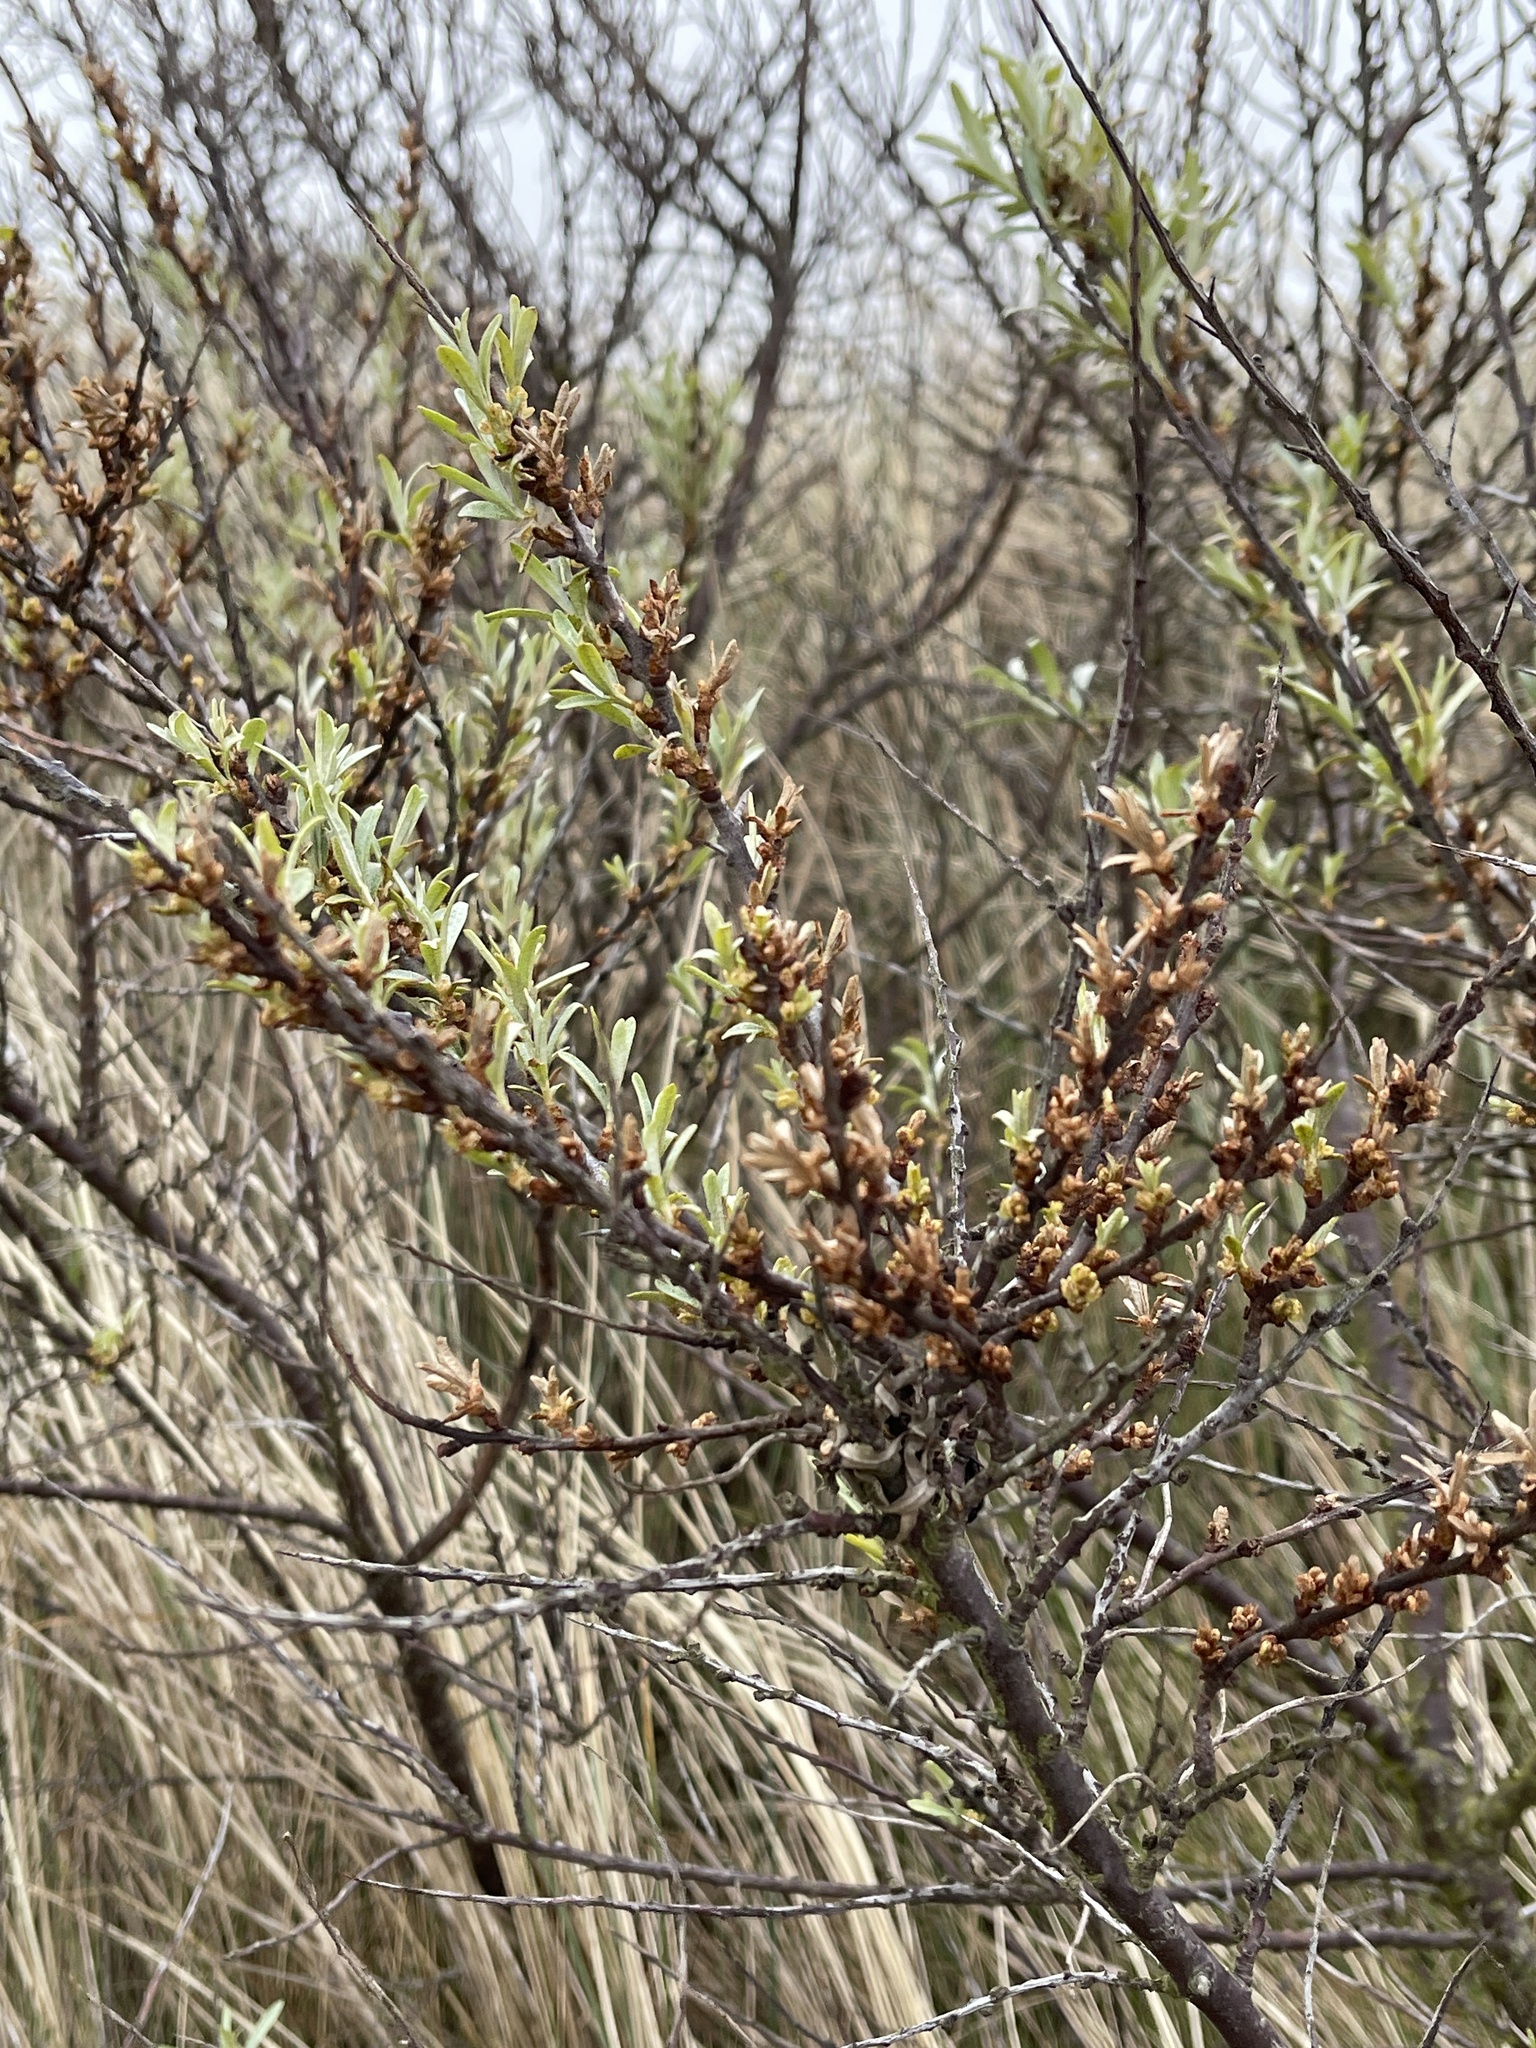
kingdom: Plantae
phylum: Tracheophyta
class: Magnoliopsida
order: Rosales
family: Elaeagnaceae
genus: Hippophae
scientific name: Hippophae rhamnoides
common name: Sea-buckthorn
